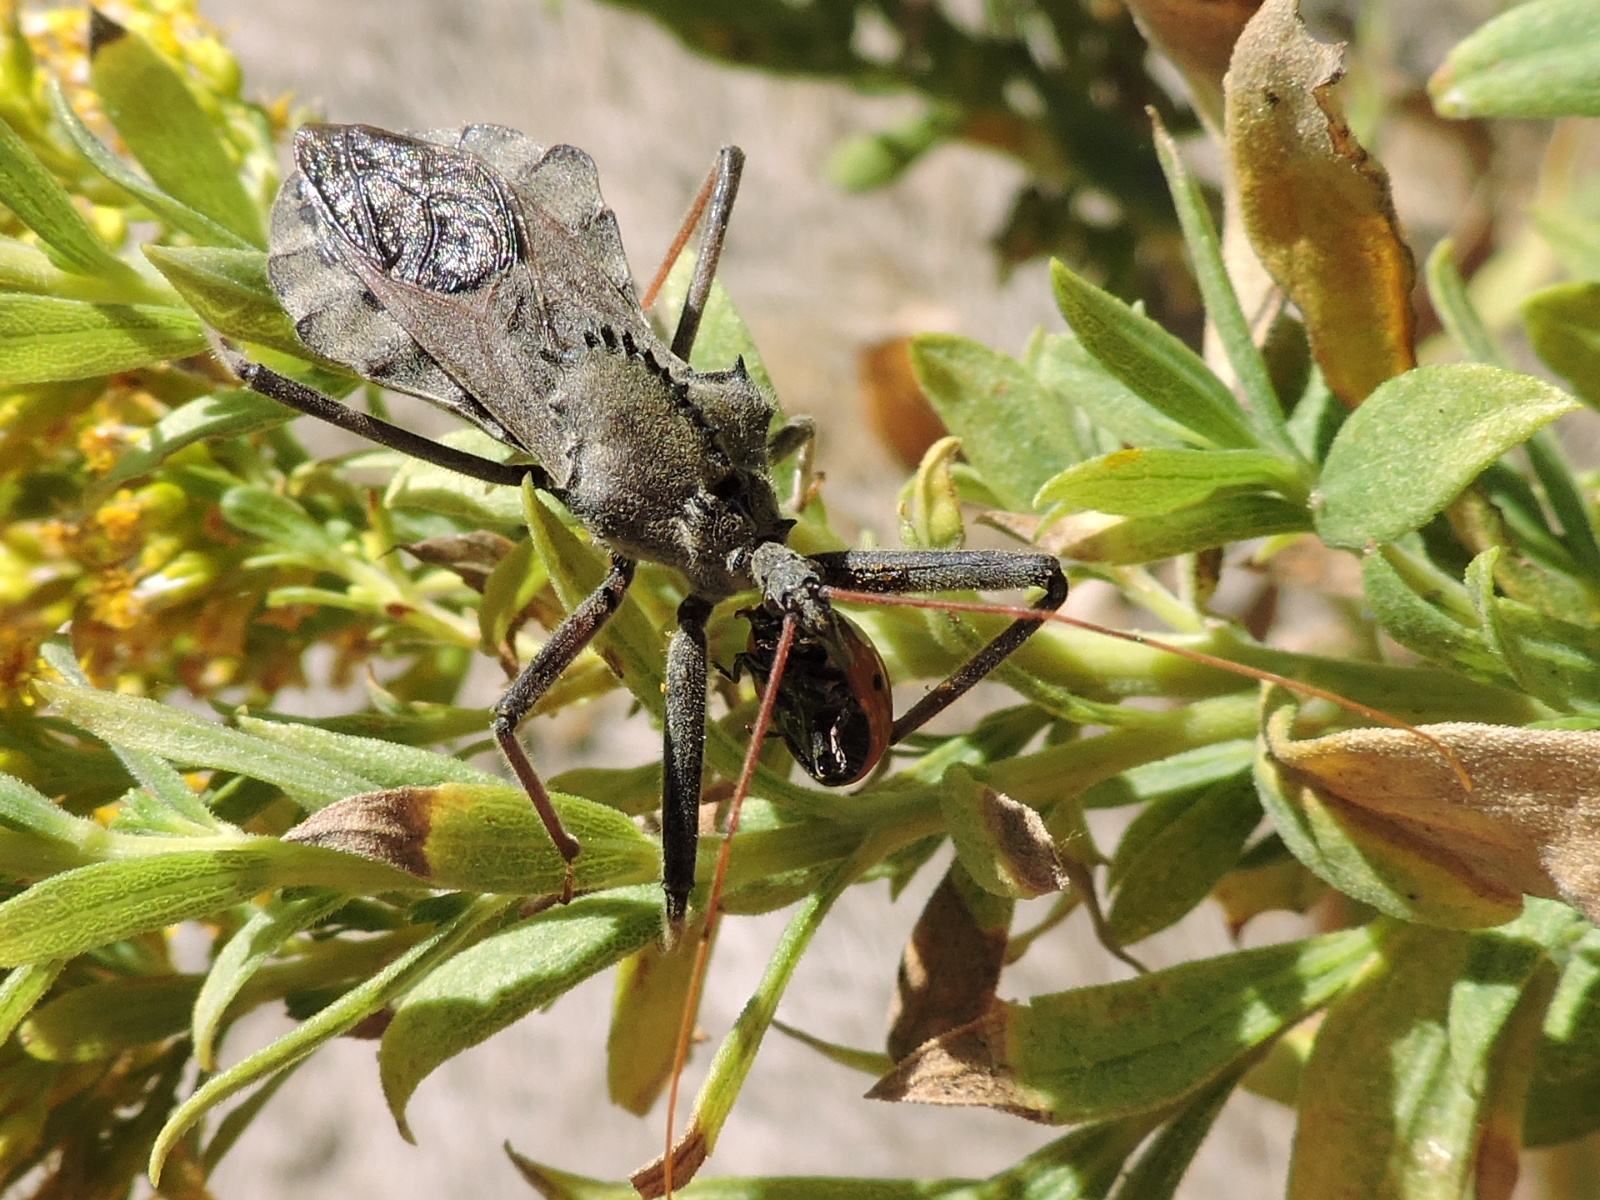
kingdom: Animalia
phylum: Arthropoda
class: Insecta
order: Hemiptera
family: Reduviidae
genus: Arilus
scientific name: Arilus cristatus
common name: North american wheel bug
